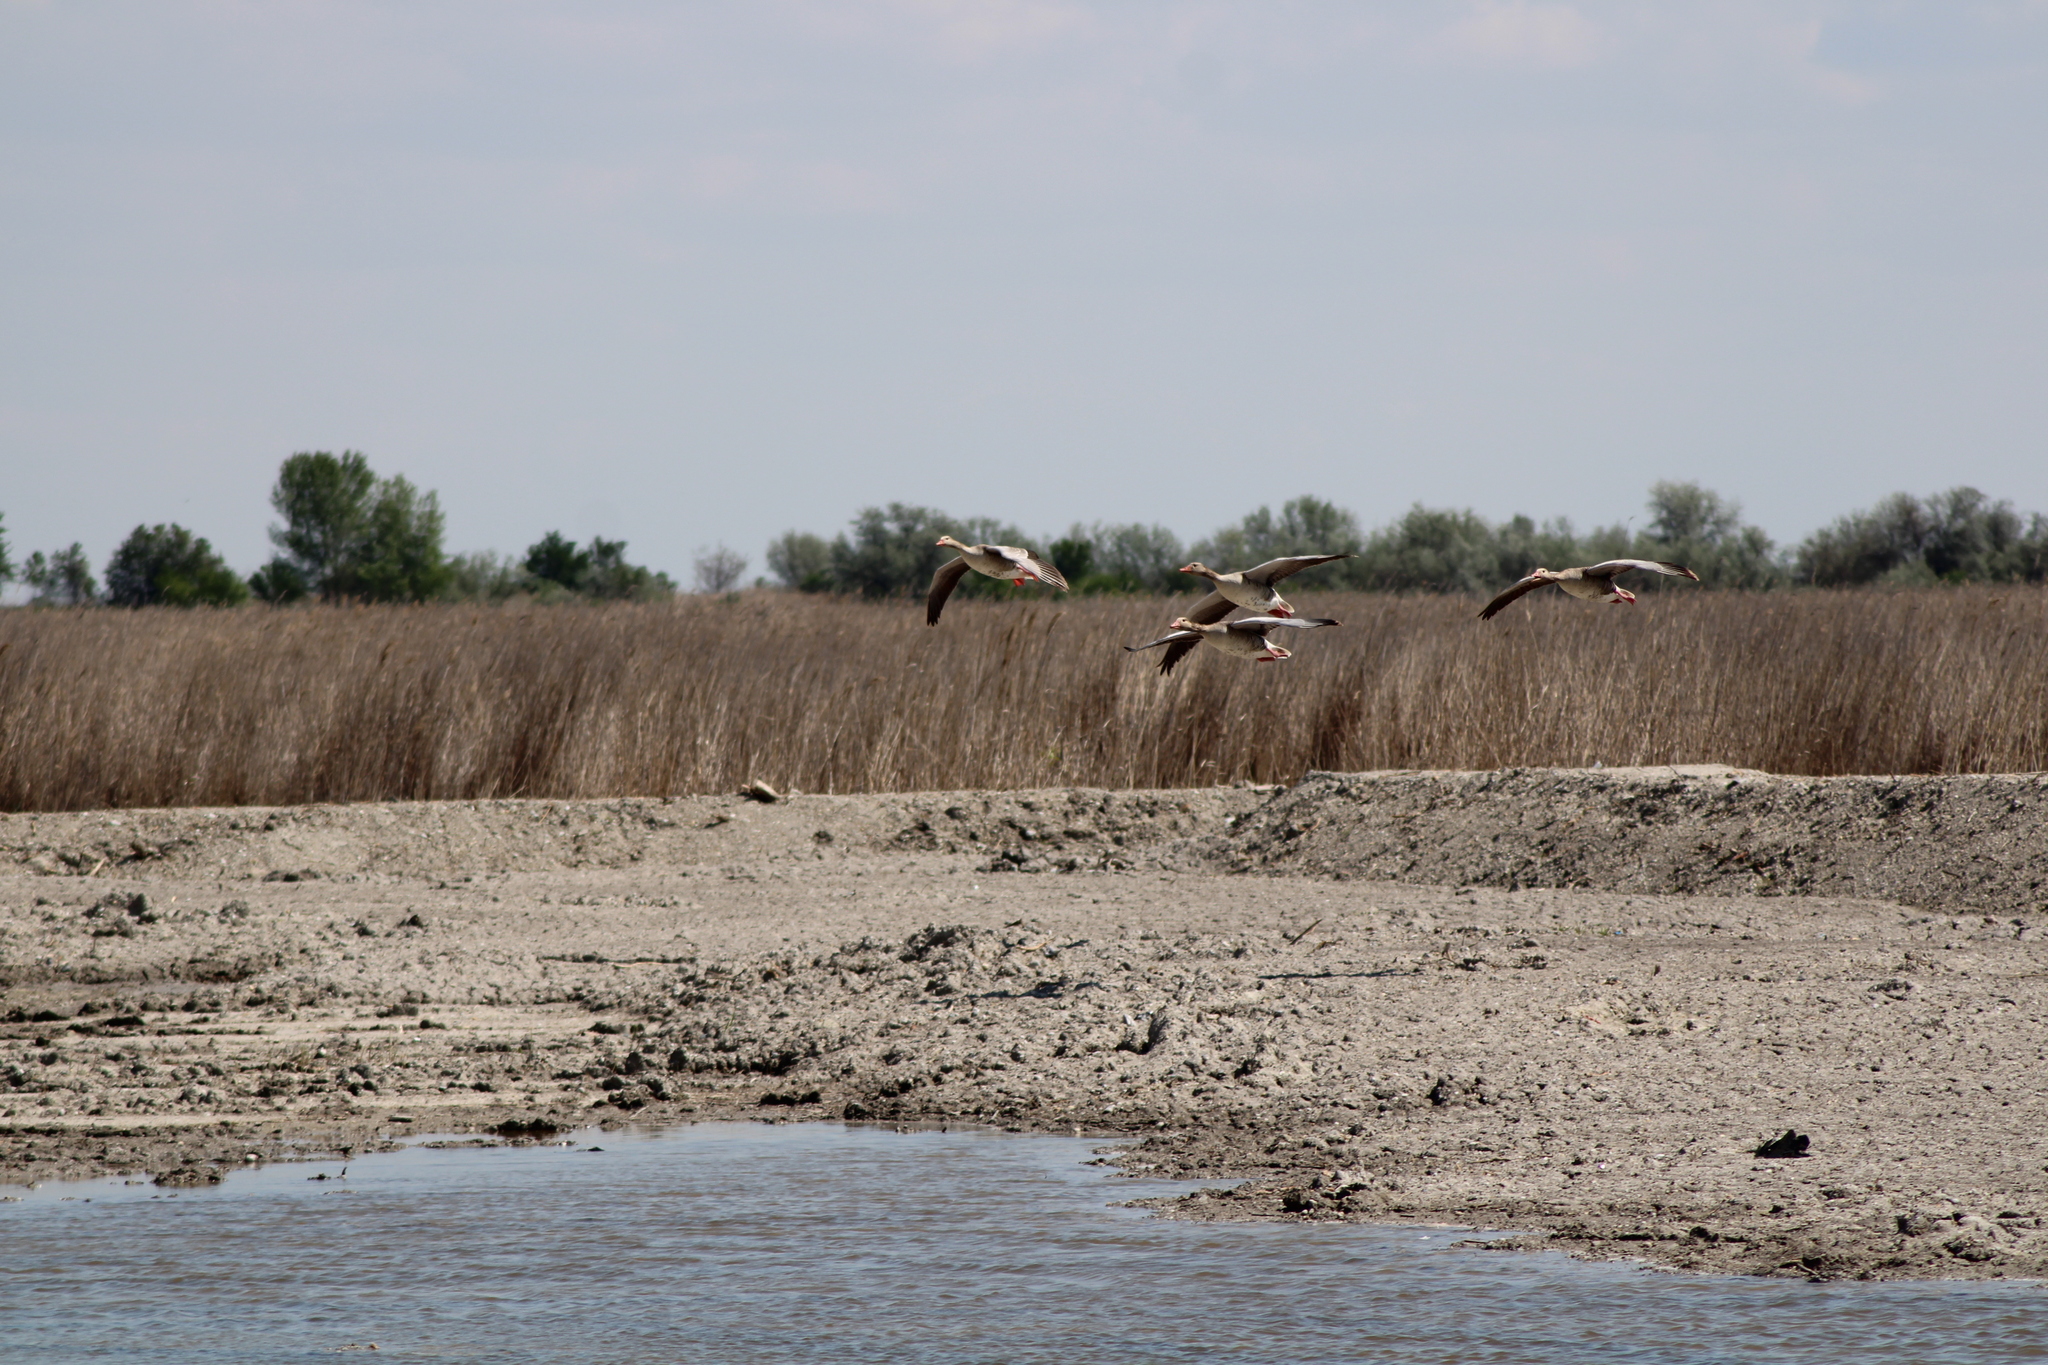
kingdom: Animalia
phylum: Chordata
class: Aves
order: Anseriformes
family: Anatidae
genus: Anser
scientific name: Anser anser
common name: Greylag goose
